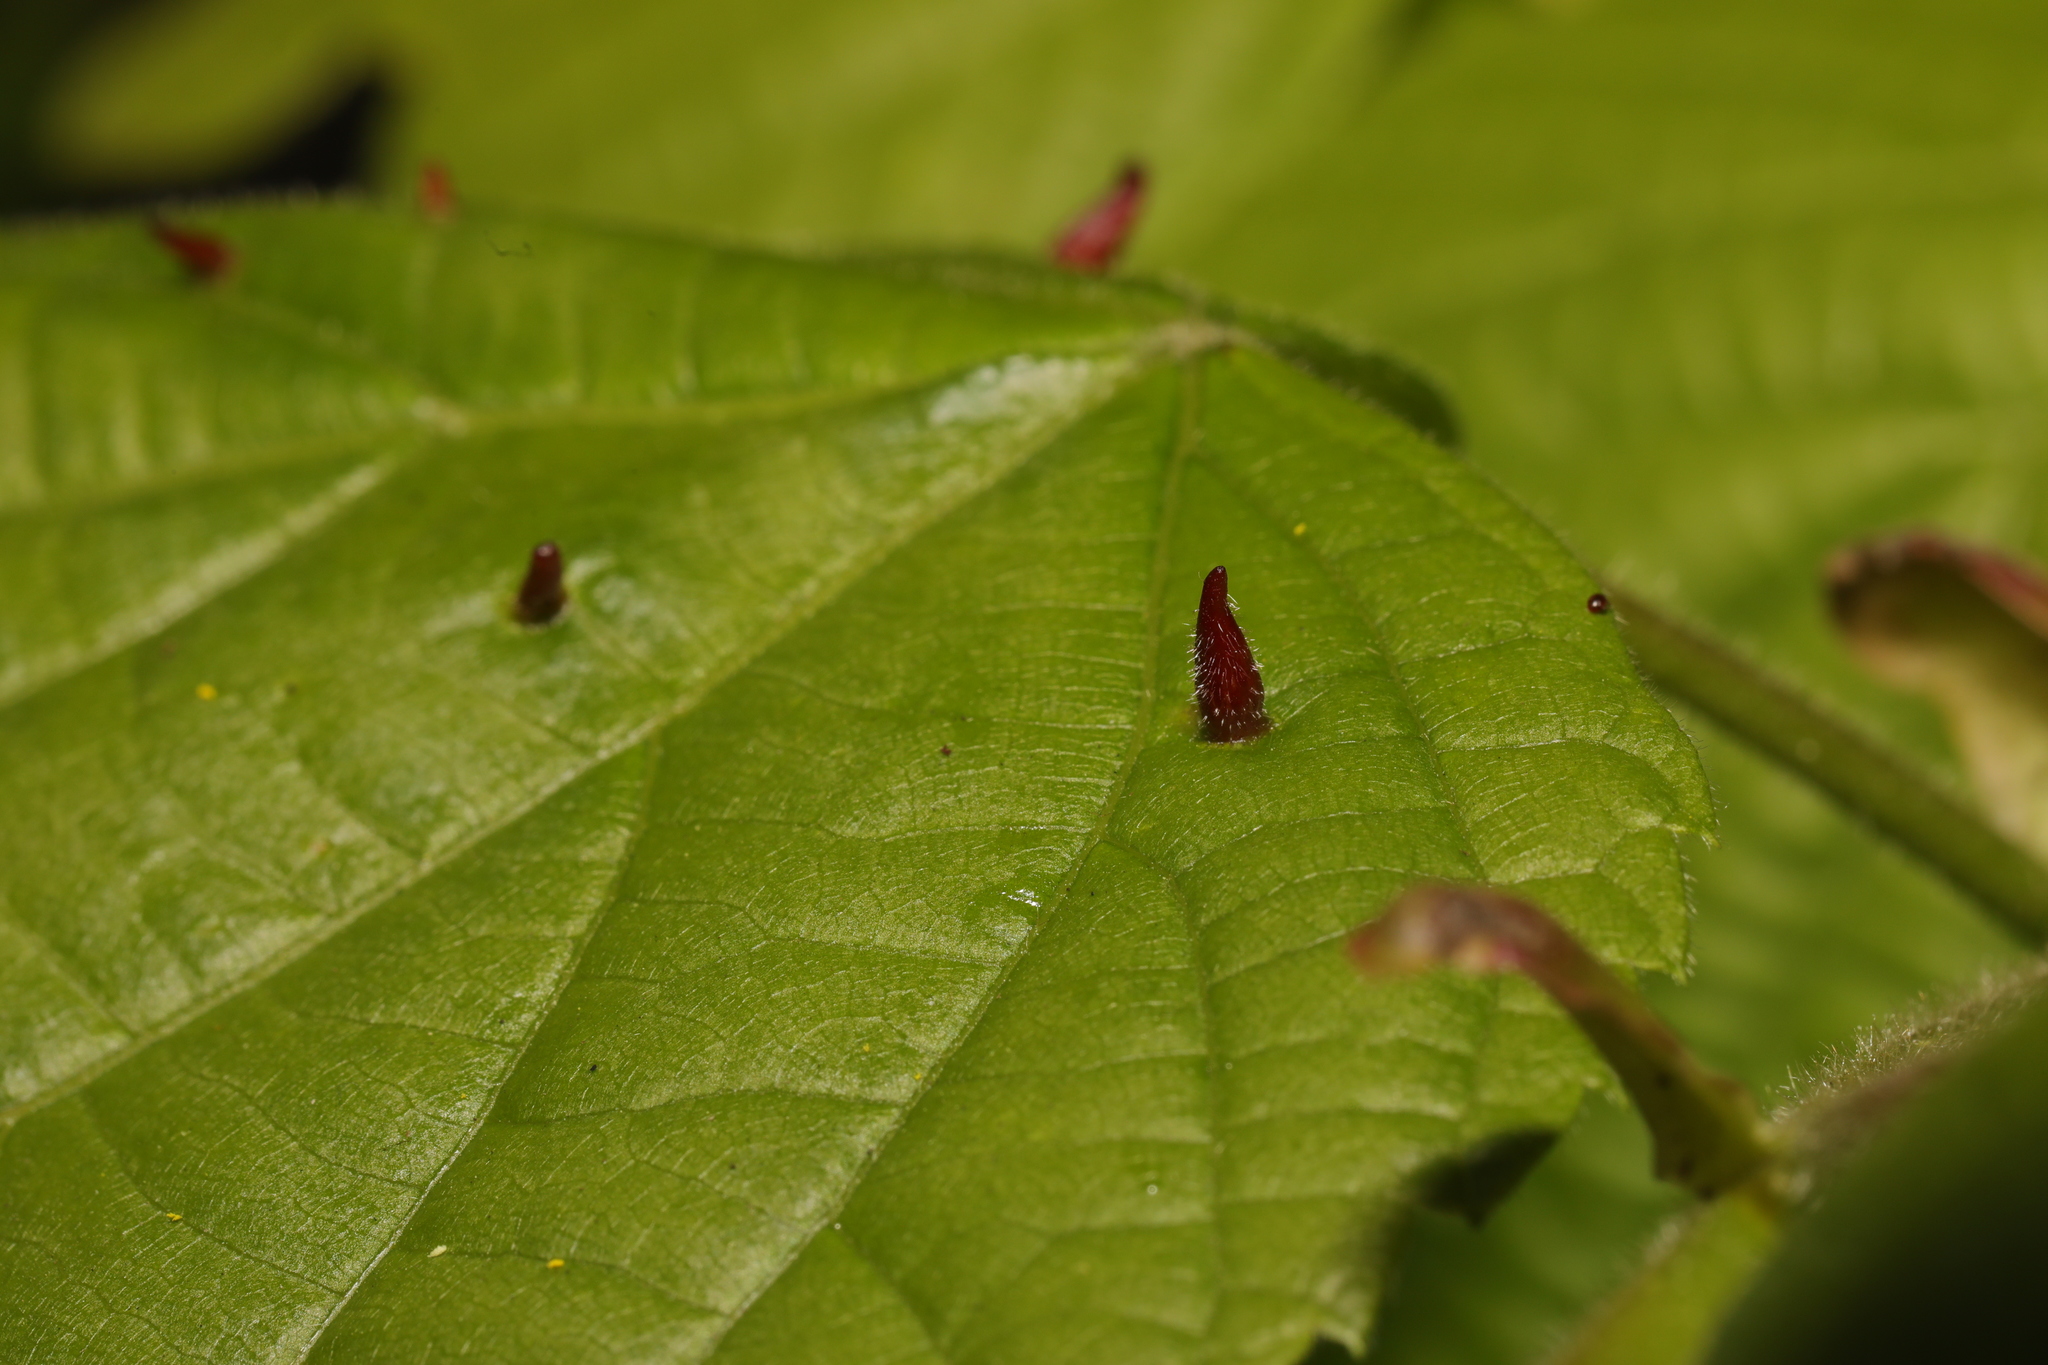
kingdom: Animalia
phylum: Arthropoda
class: Arachnida
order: Trombidiformes
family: Eriophyidae
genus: Eriophyes
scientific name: Eriophyes tiliae
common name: Red nail gall mite
